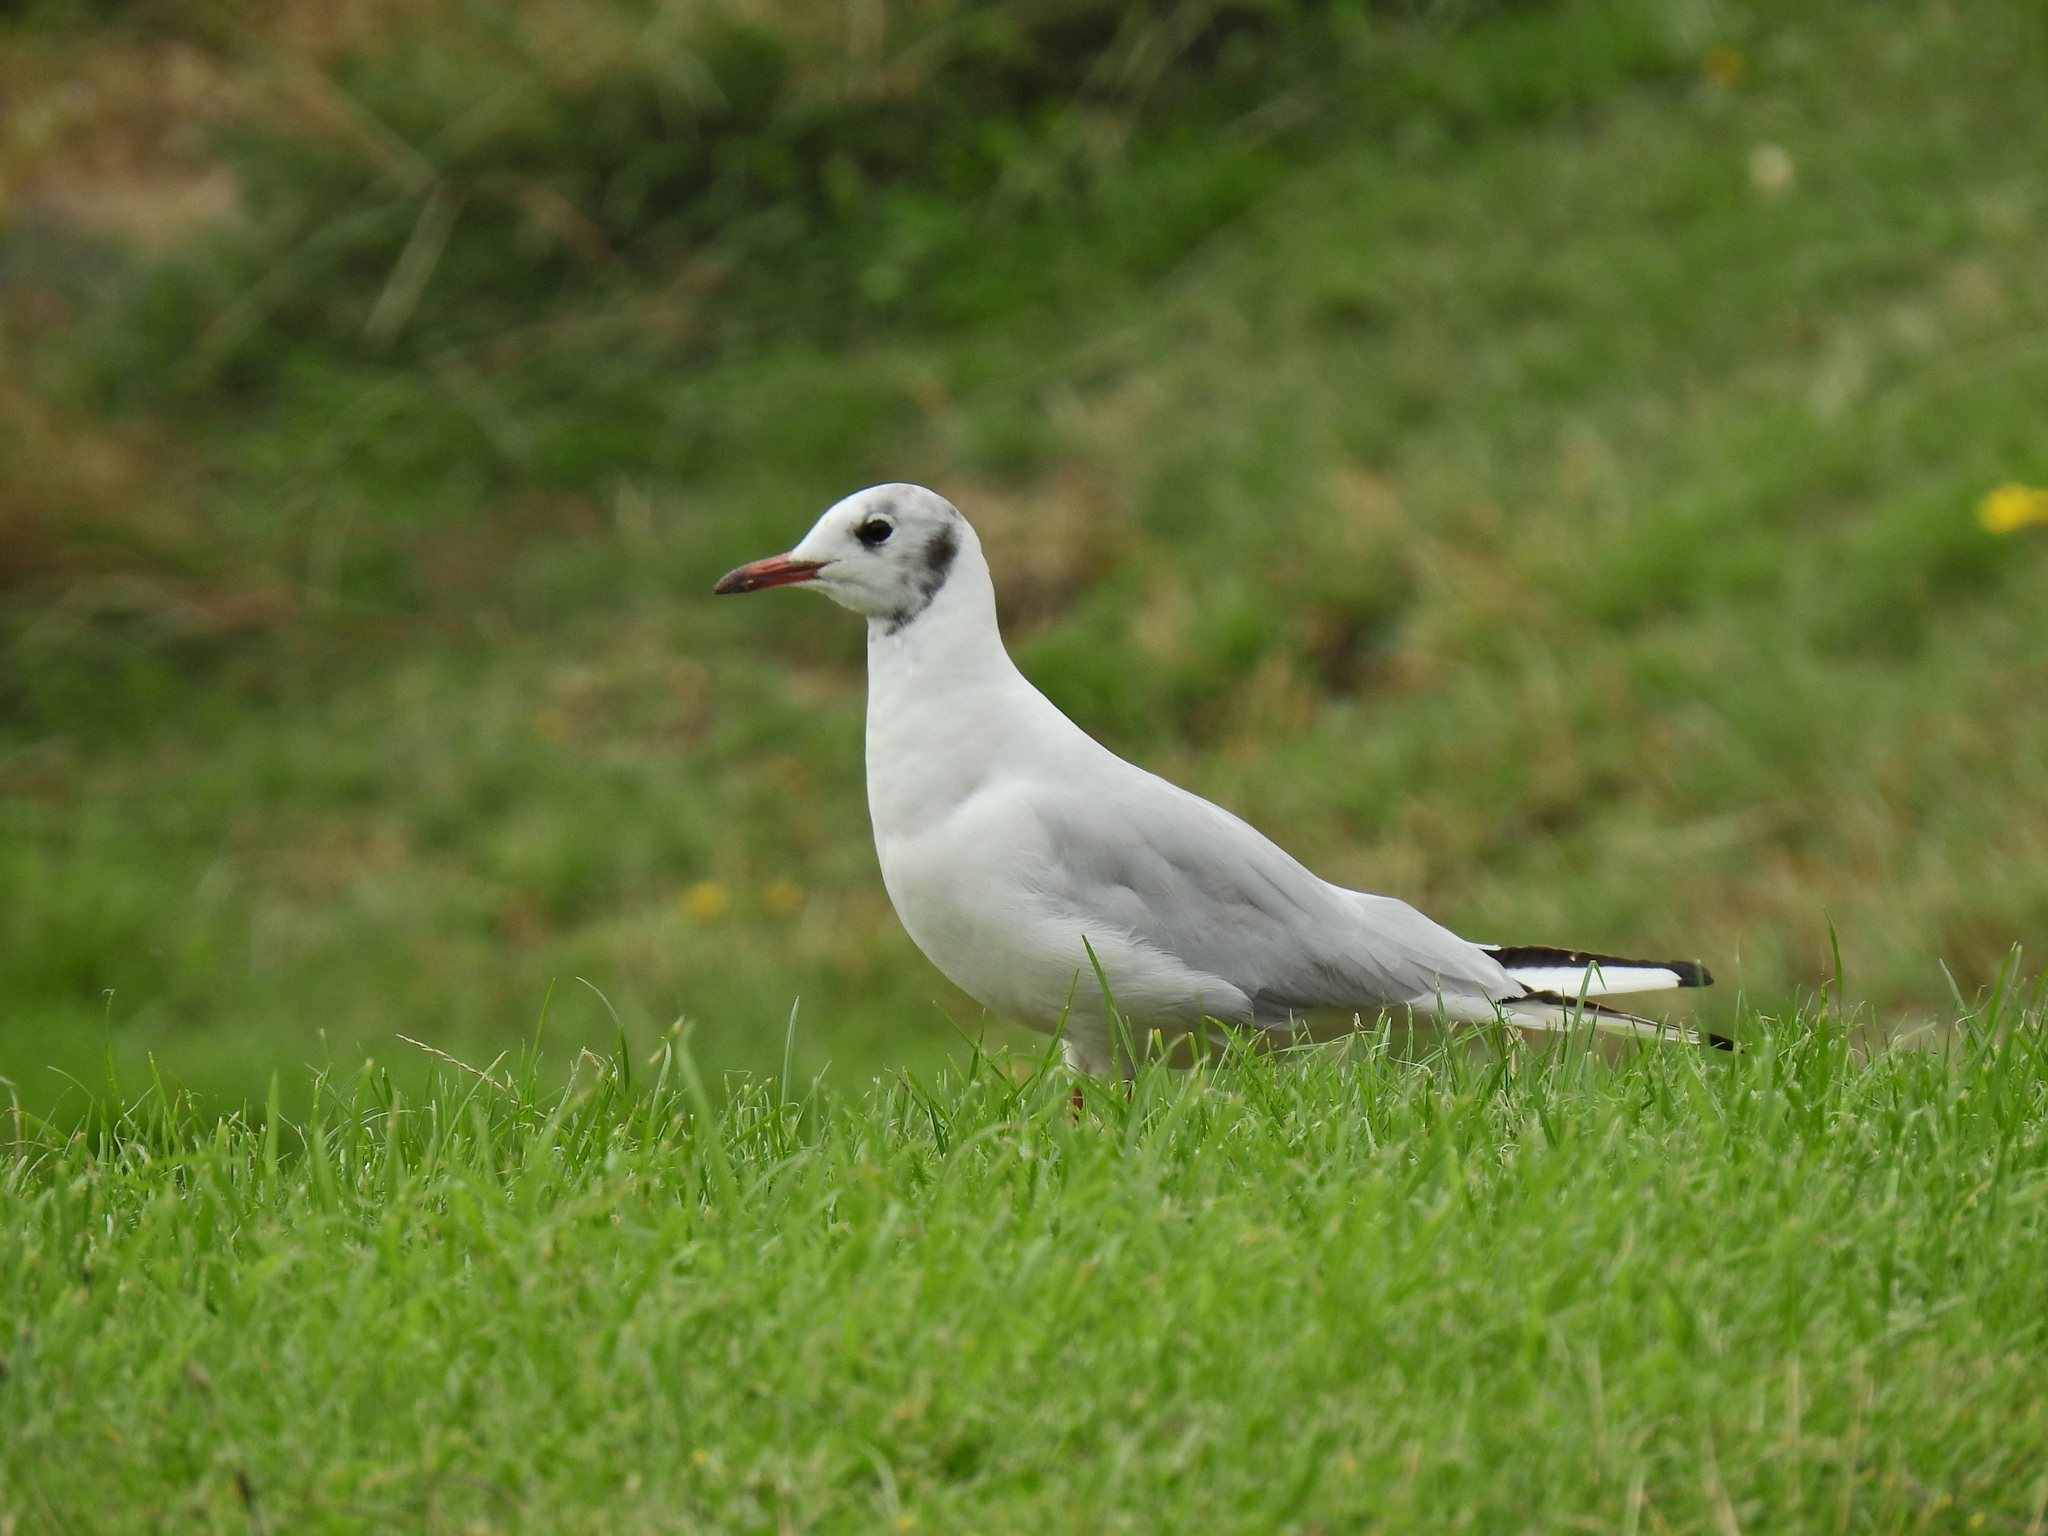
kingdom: Animalia
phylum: Chordata
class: Aves
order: Charadriiformes
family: Laridae
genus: Chroicocephalus
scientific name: Chroicocephalus ridibundus
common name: Black-headed gull
